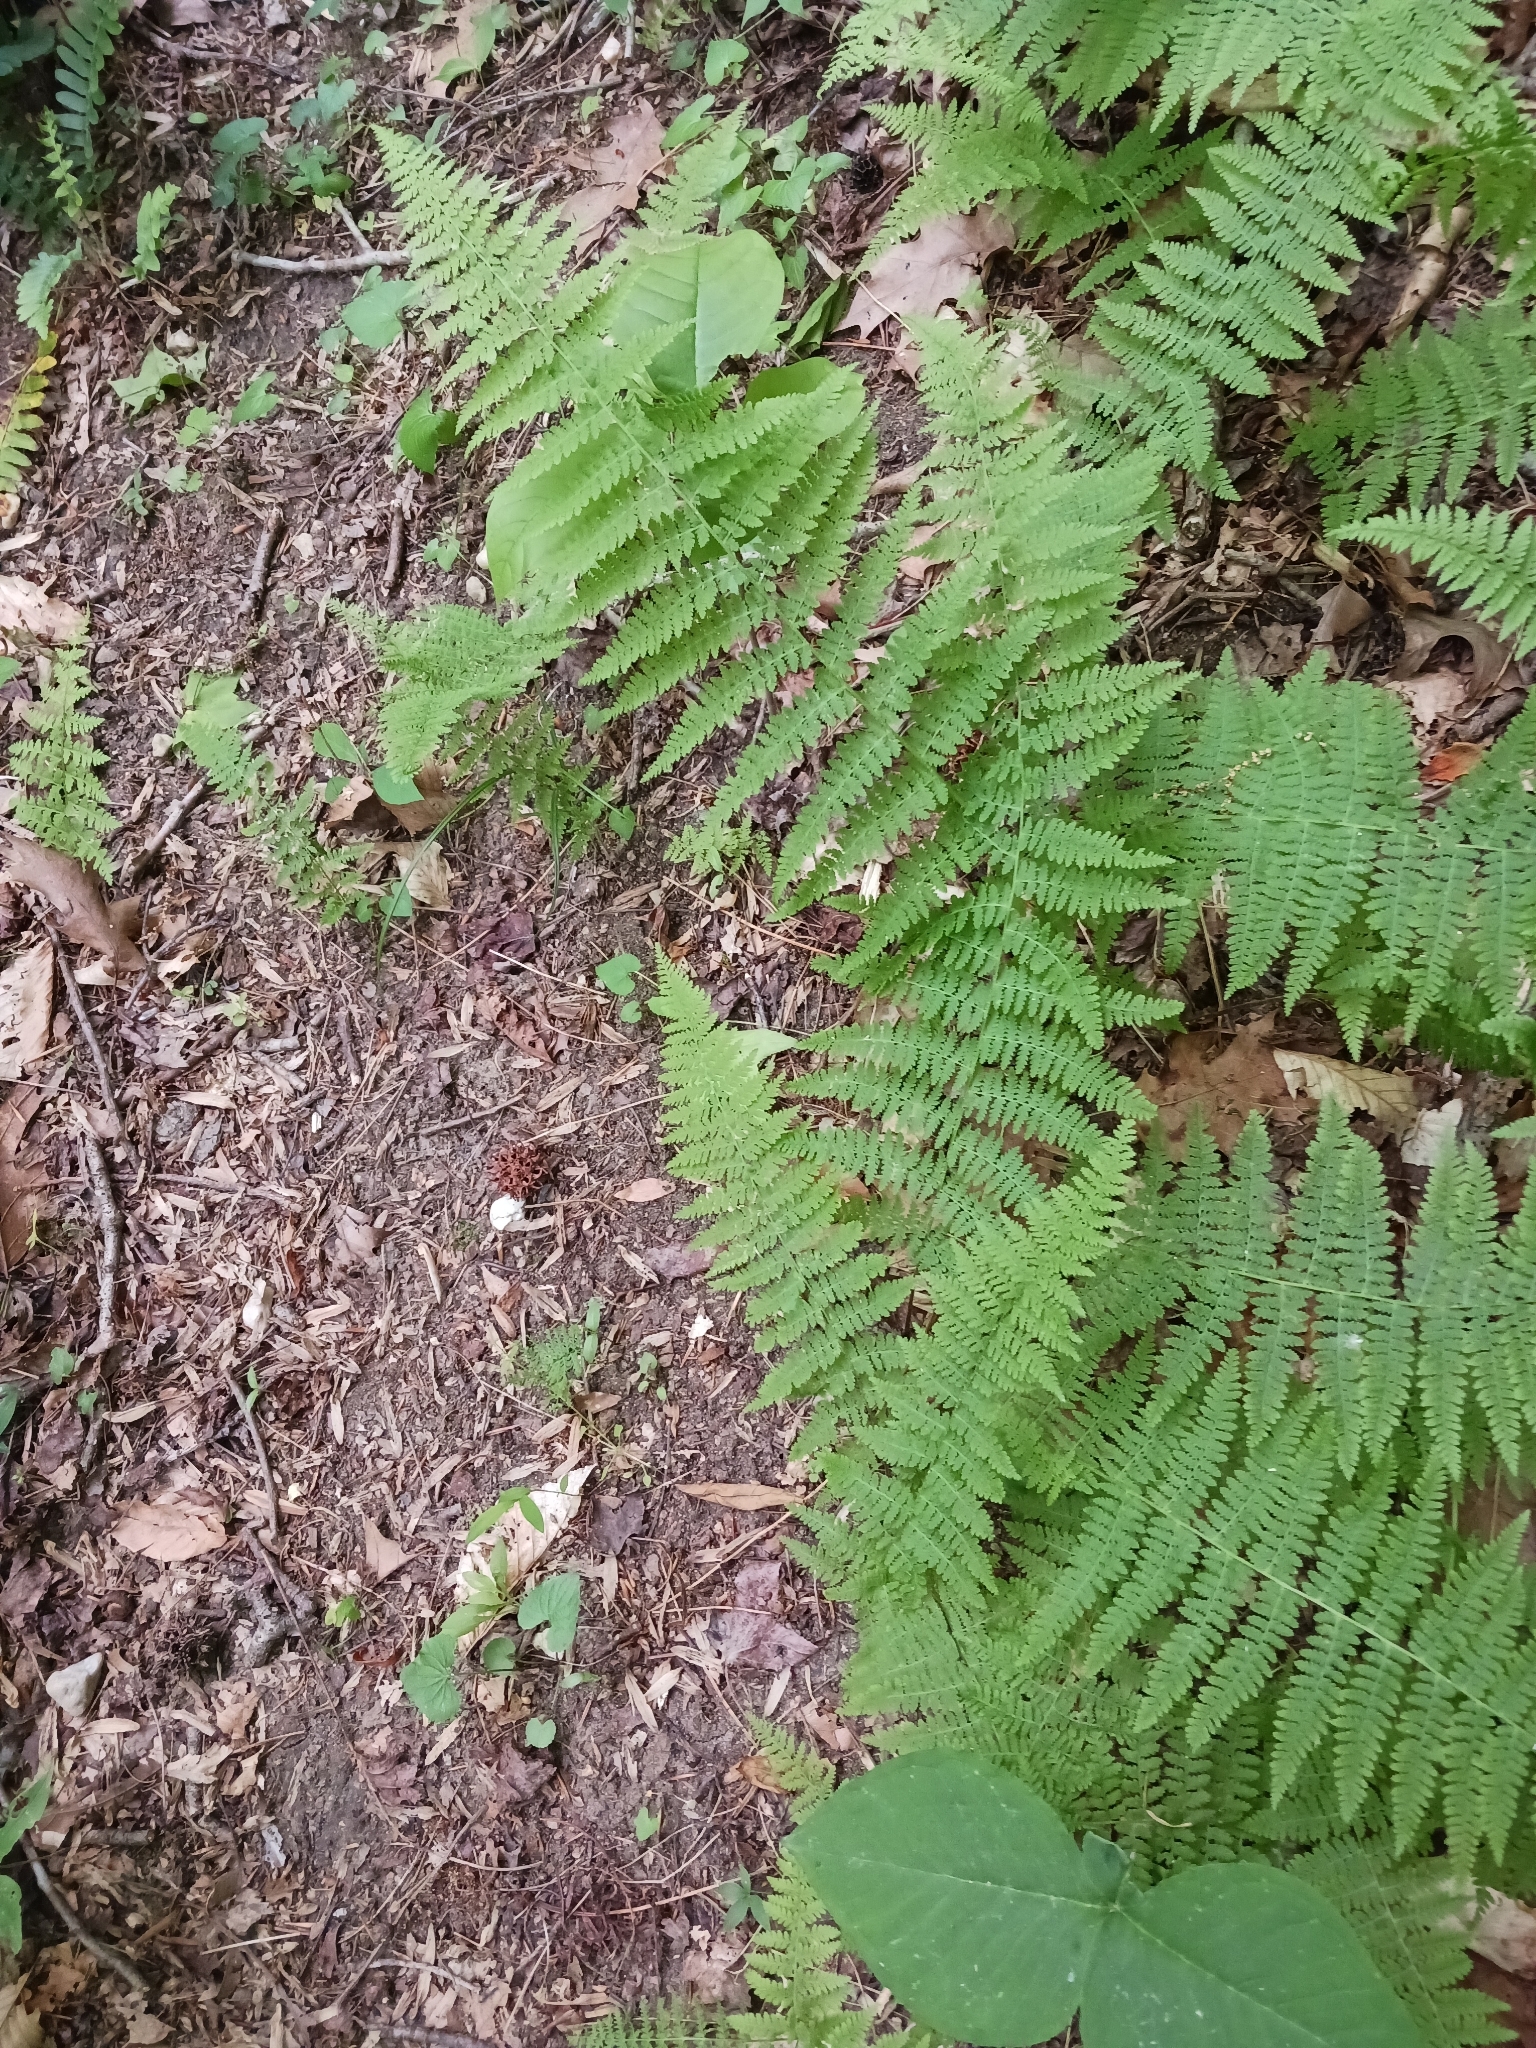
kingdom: Plantae
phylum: Tracheophyta
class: Polypodiopsida
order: Polypodiales
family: Dennstaedtiaceae
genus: Sitobolium
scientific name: Sitobolium punctilobum
